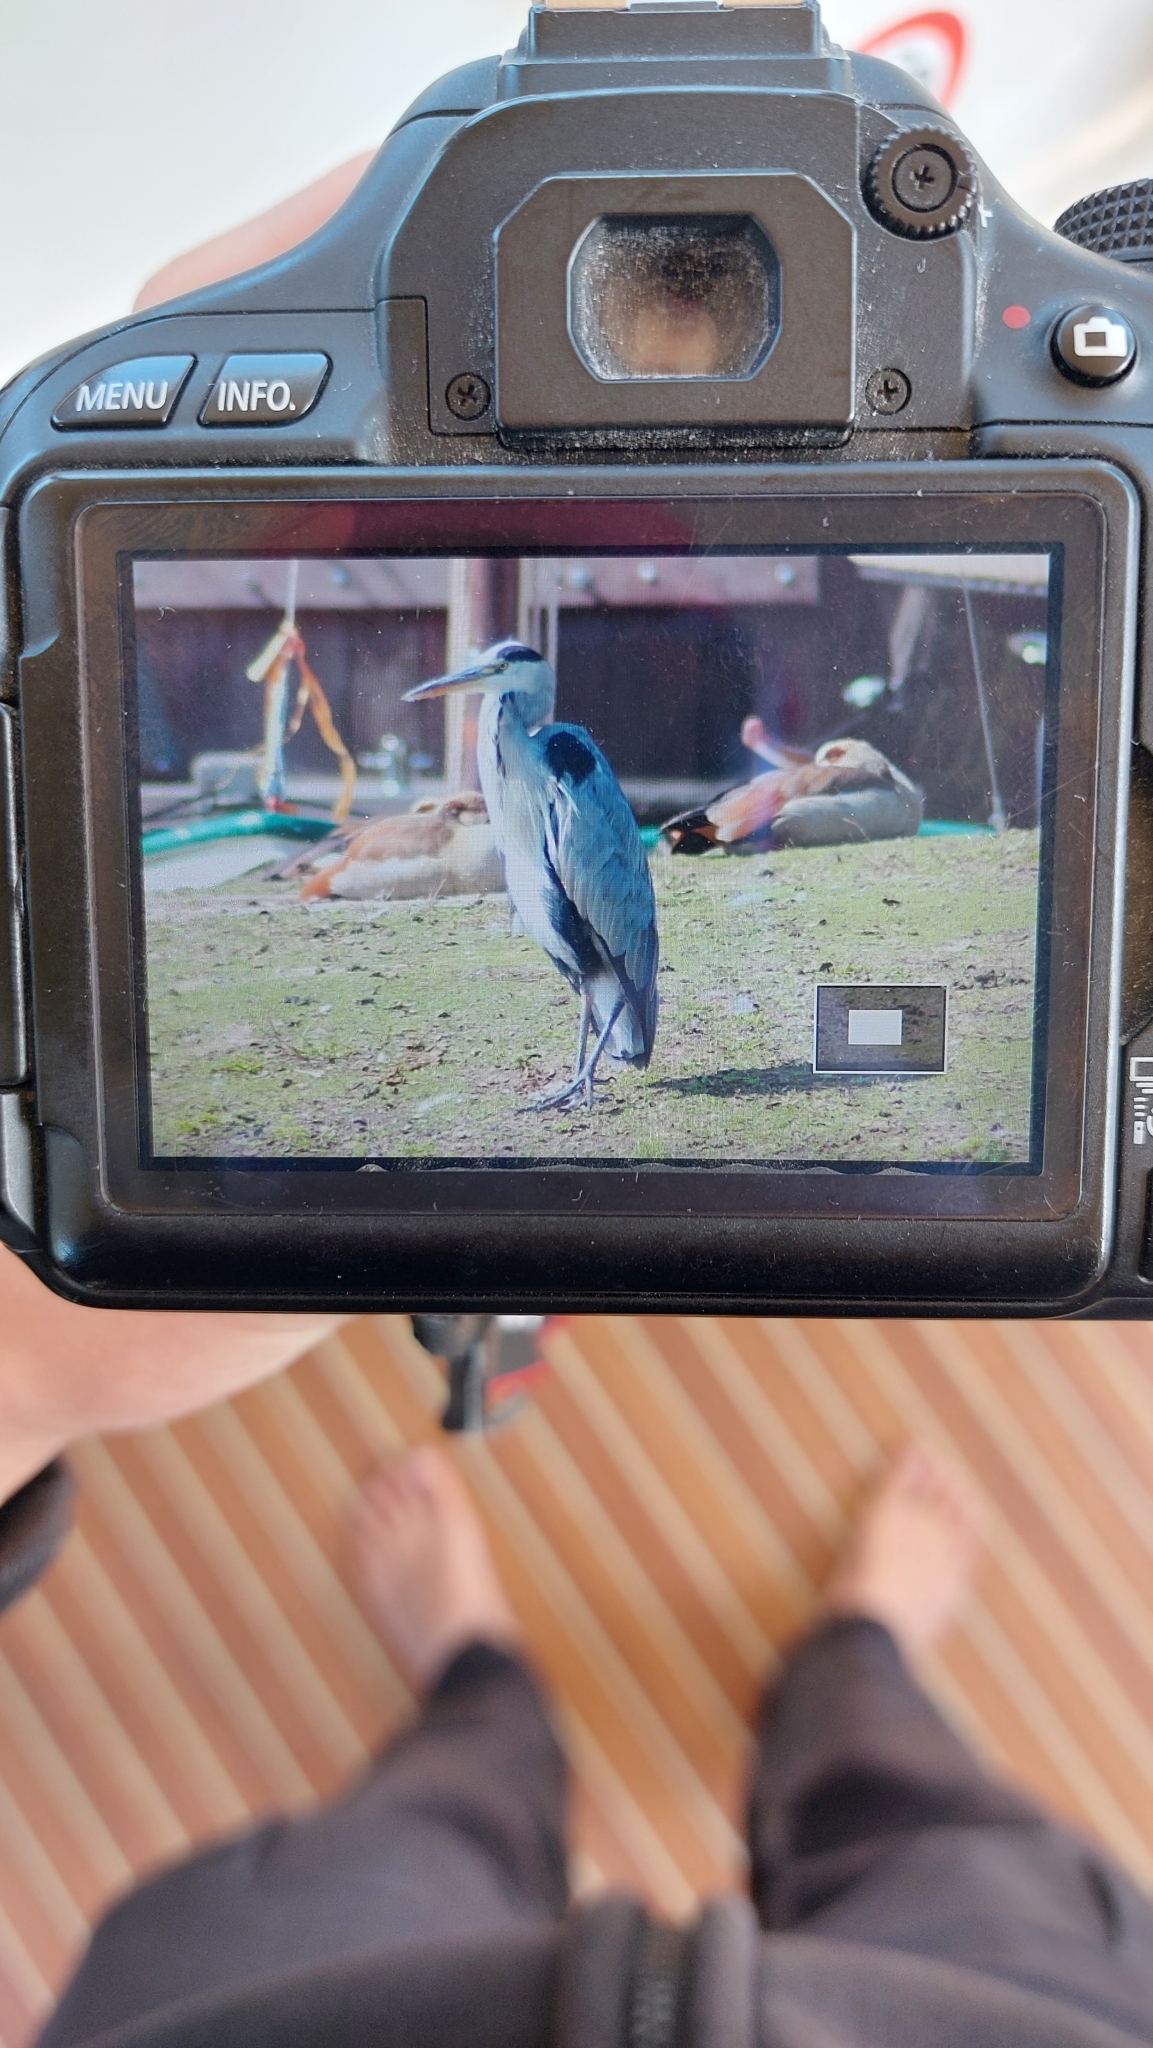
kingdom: Animalia
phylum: Chordata
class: Aves
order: Pelecaniformes
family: Ardeidae
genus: Ardea
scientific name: Ardea cinerea
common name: Grey heron
